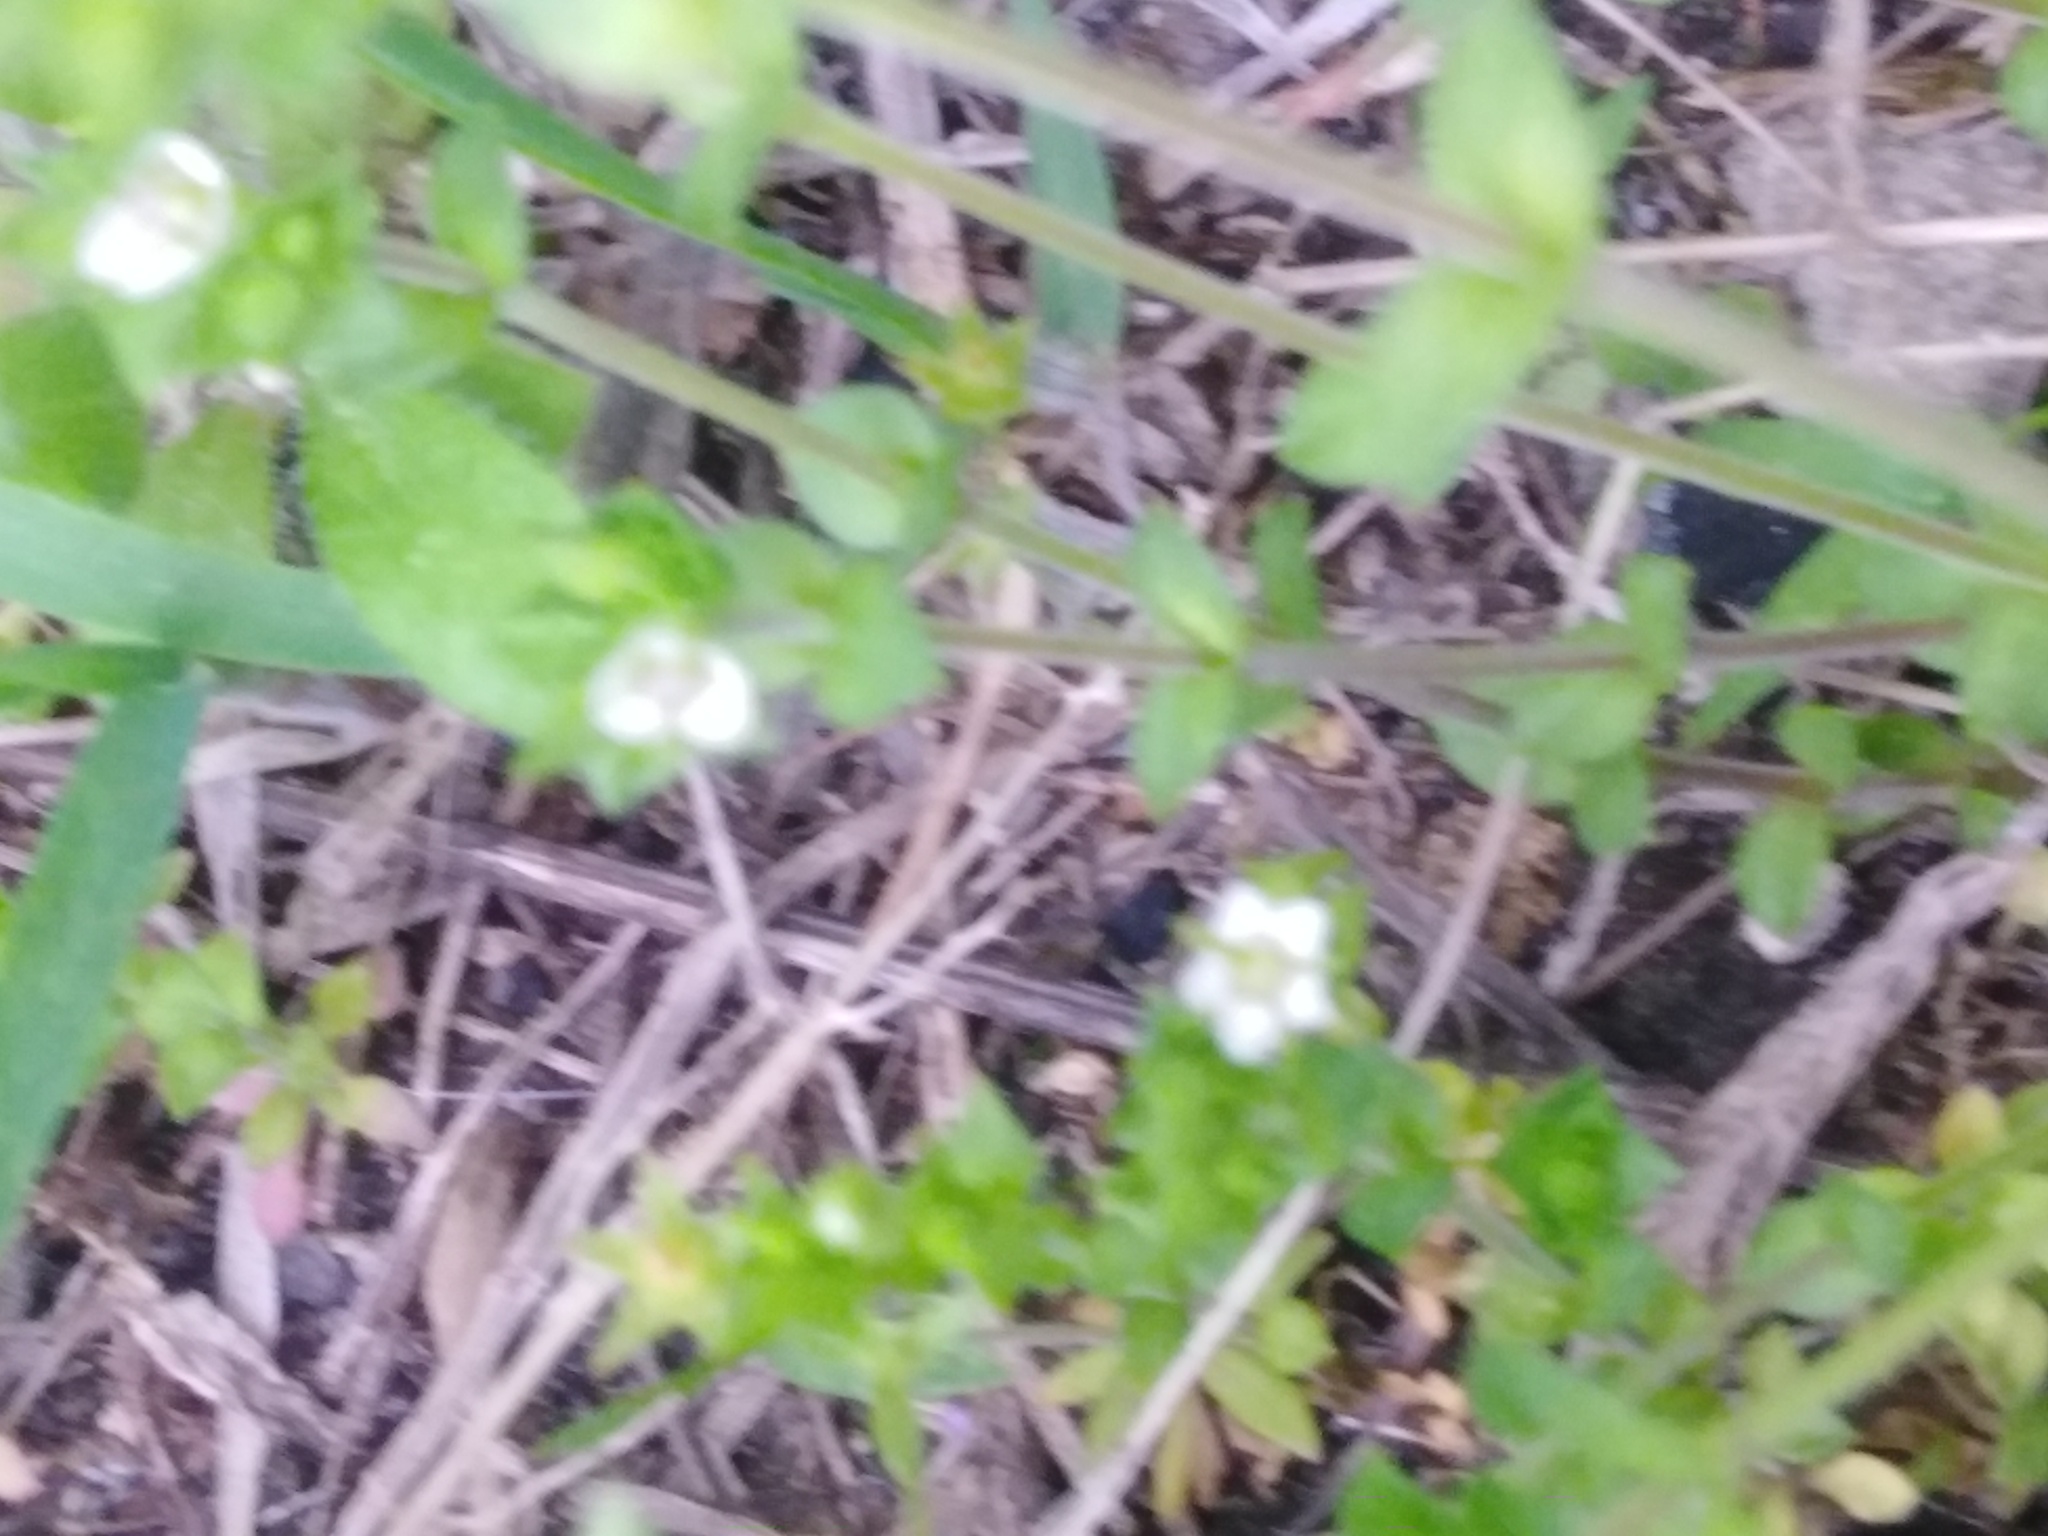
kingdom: Plantae
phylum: Tracheophyta
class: Magnoliopsida
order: Caryophyllales
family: Caryophyllaceae
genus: Arenaria
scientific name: Arenaria serpyllifolia
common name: Thyme-leaved sandwort
